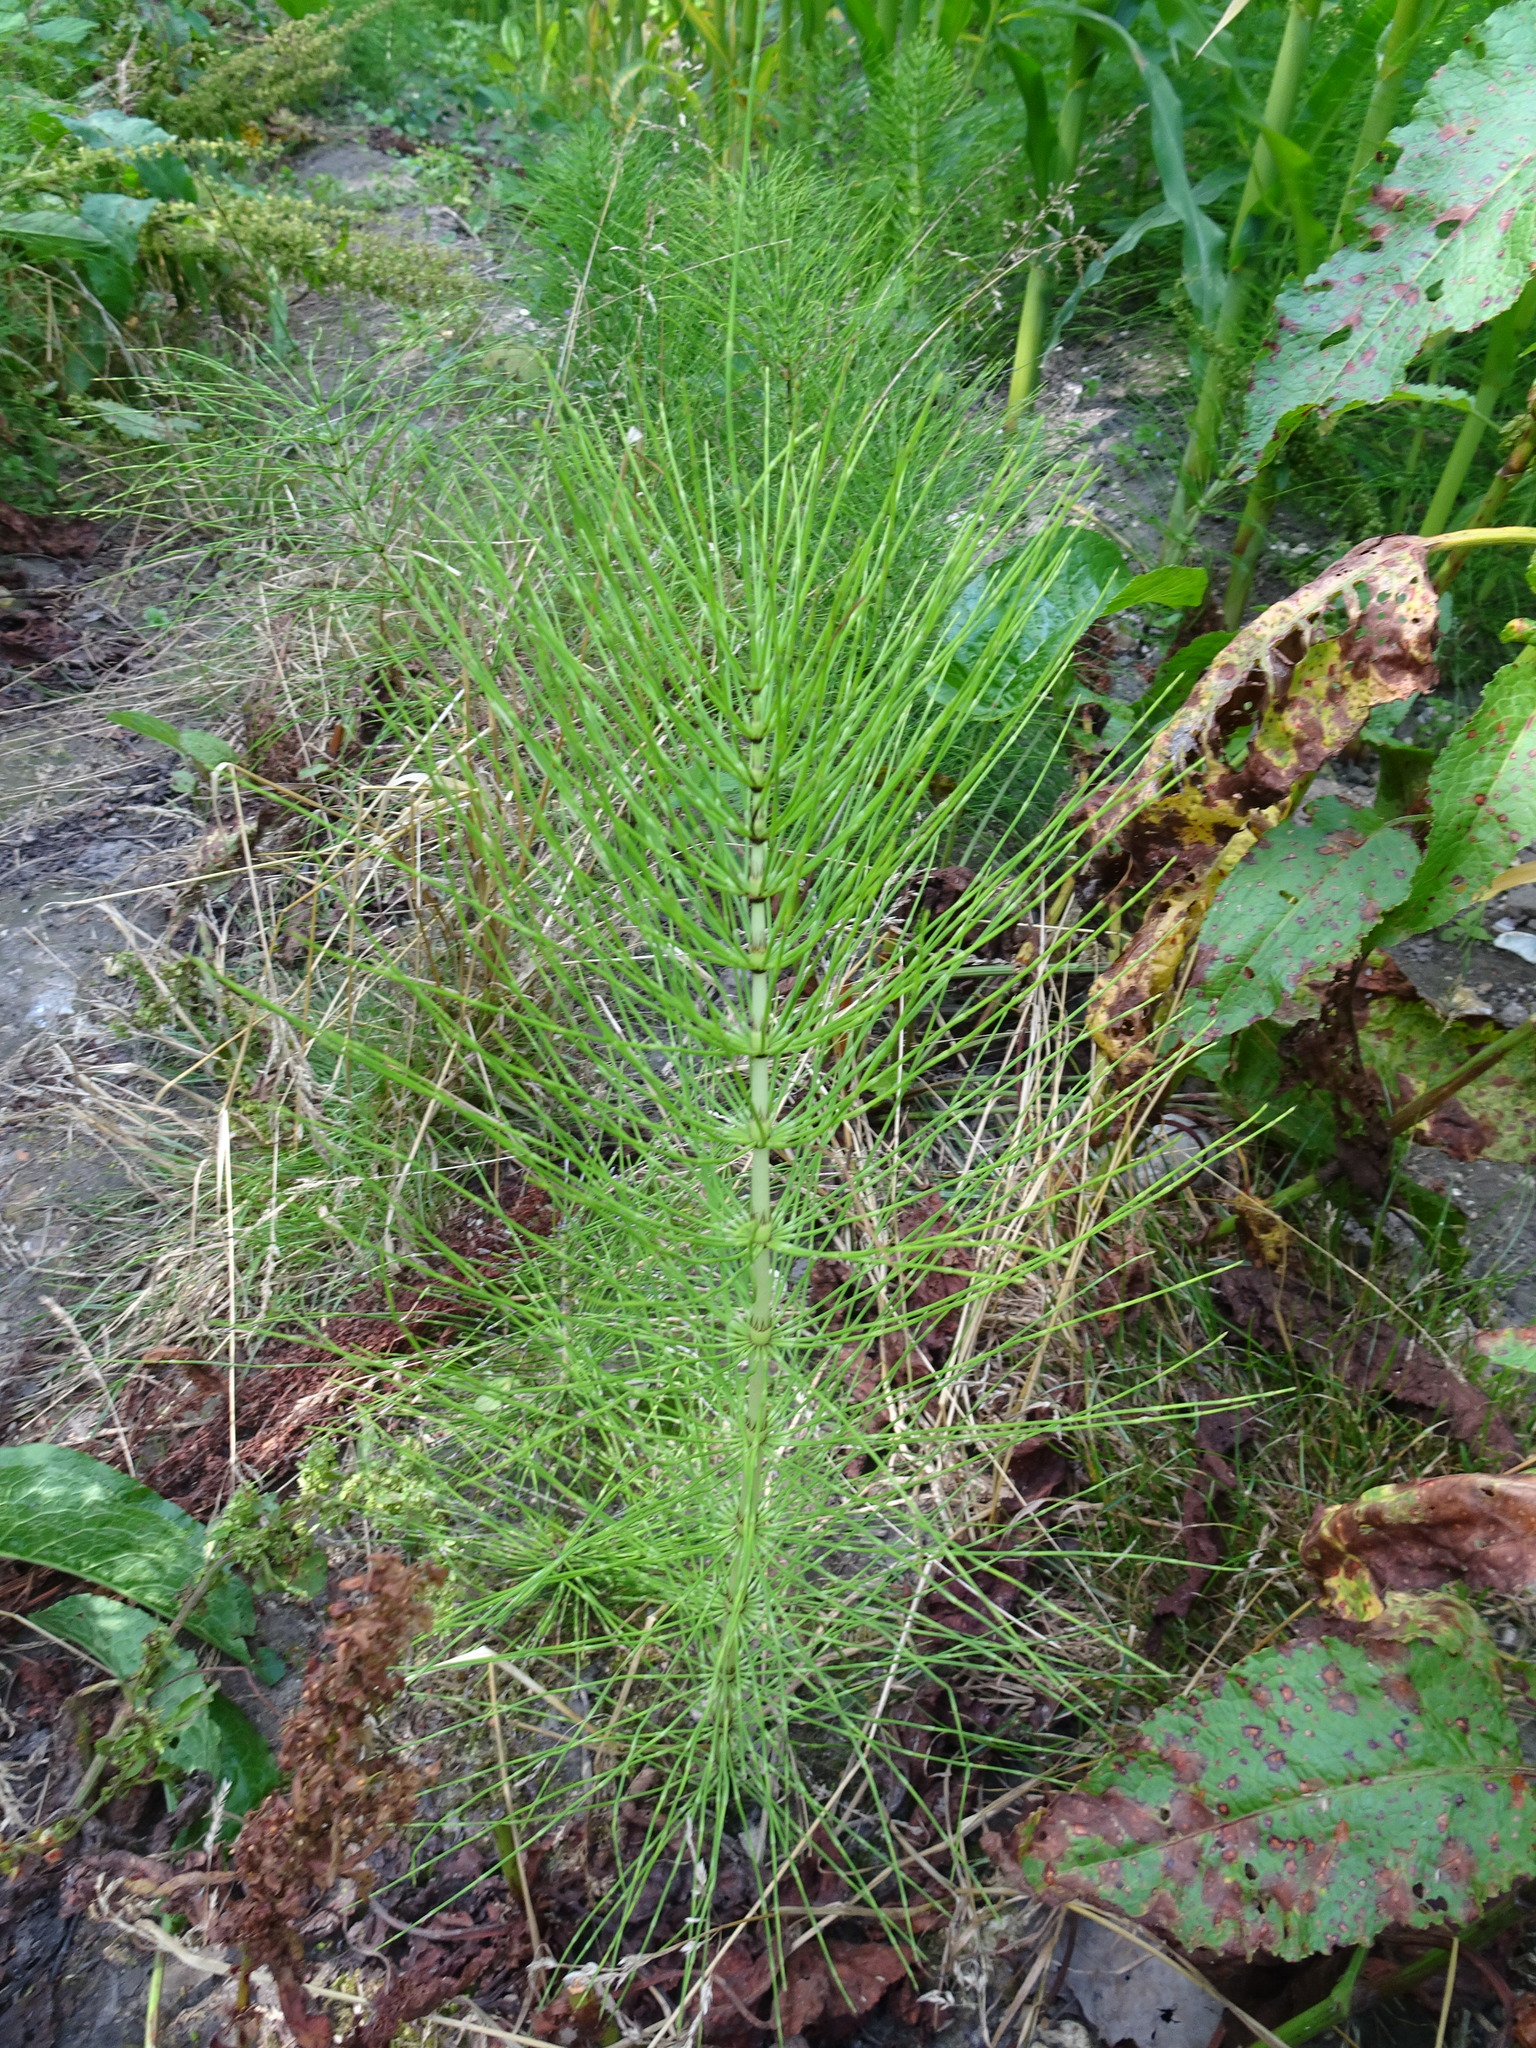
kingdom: Plantae
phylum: Tracheophyta
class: Polypodiopsida
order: Equisetales
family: Equisetaceae
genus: Equisetum
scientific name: Equisetum telmateia
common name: Great horsetail
